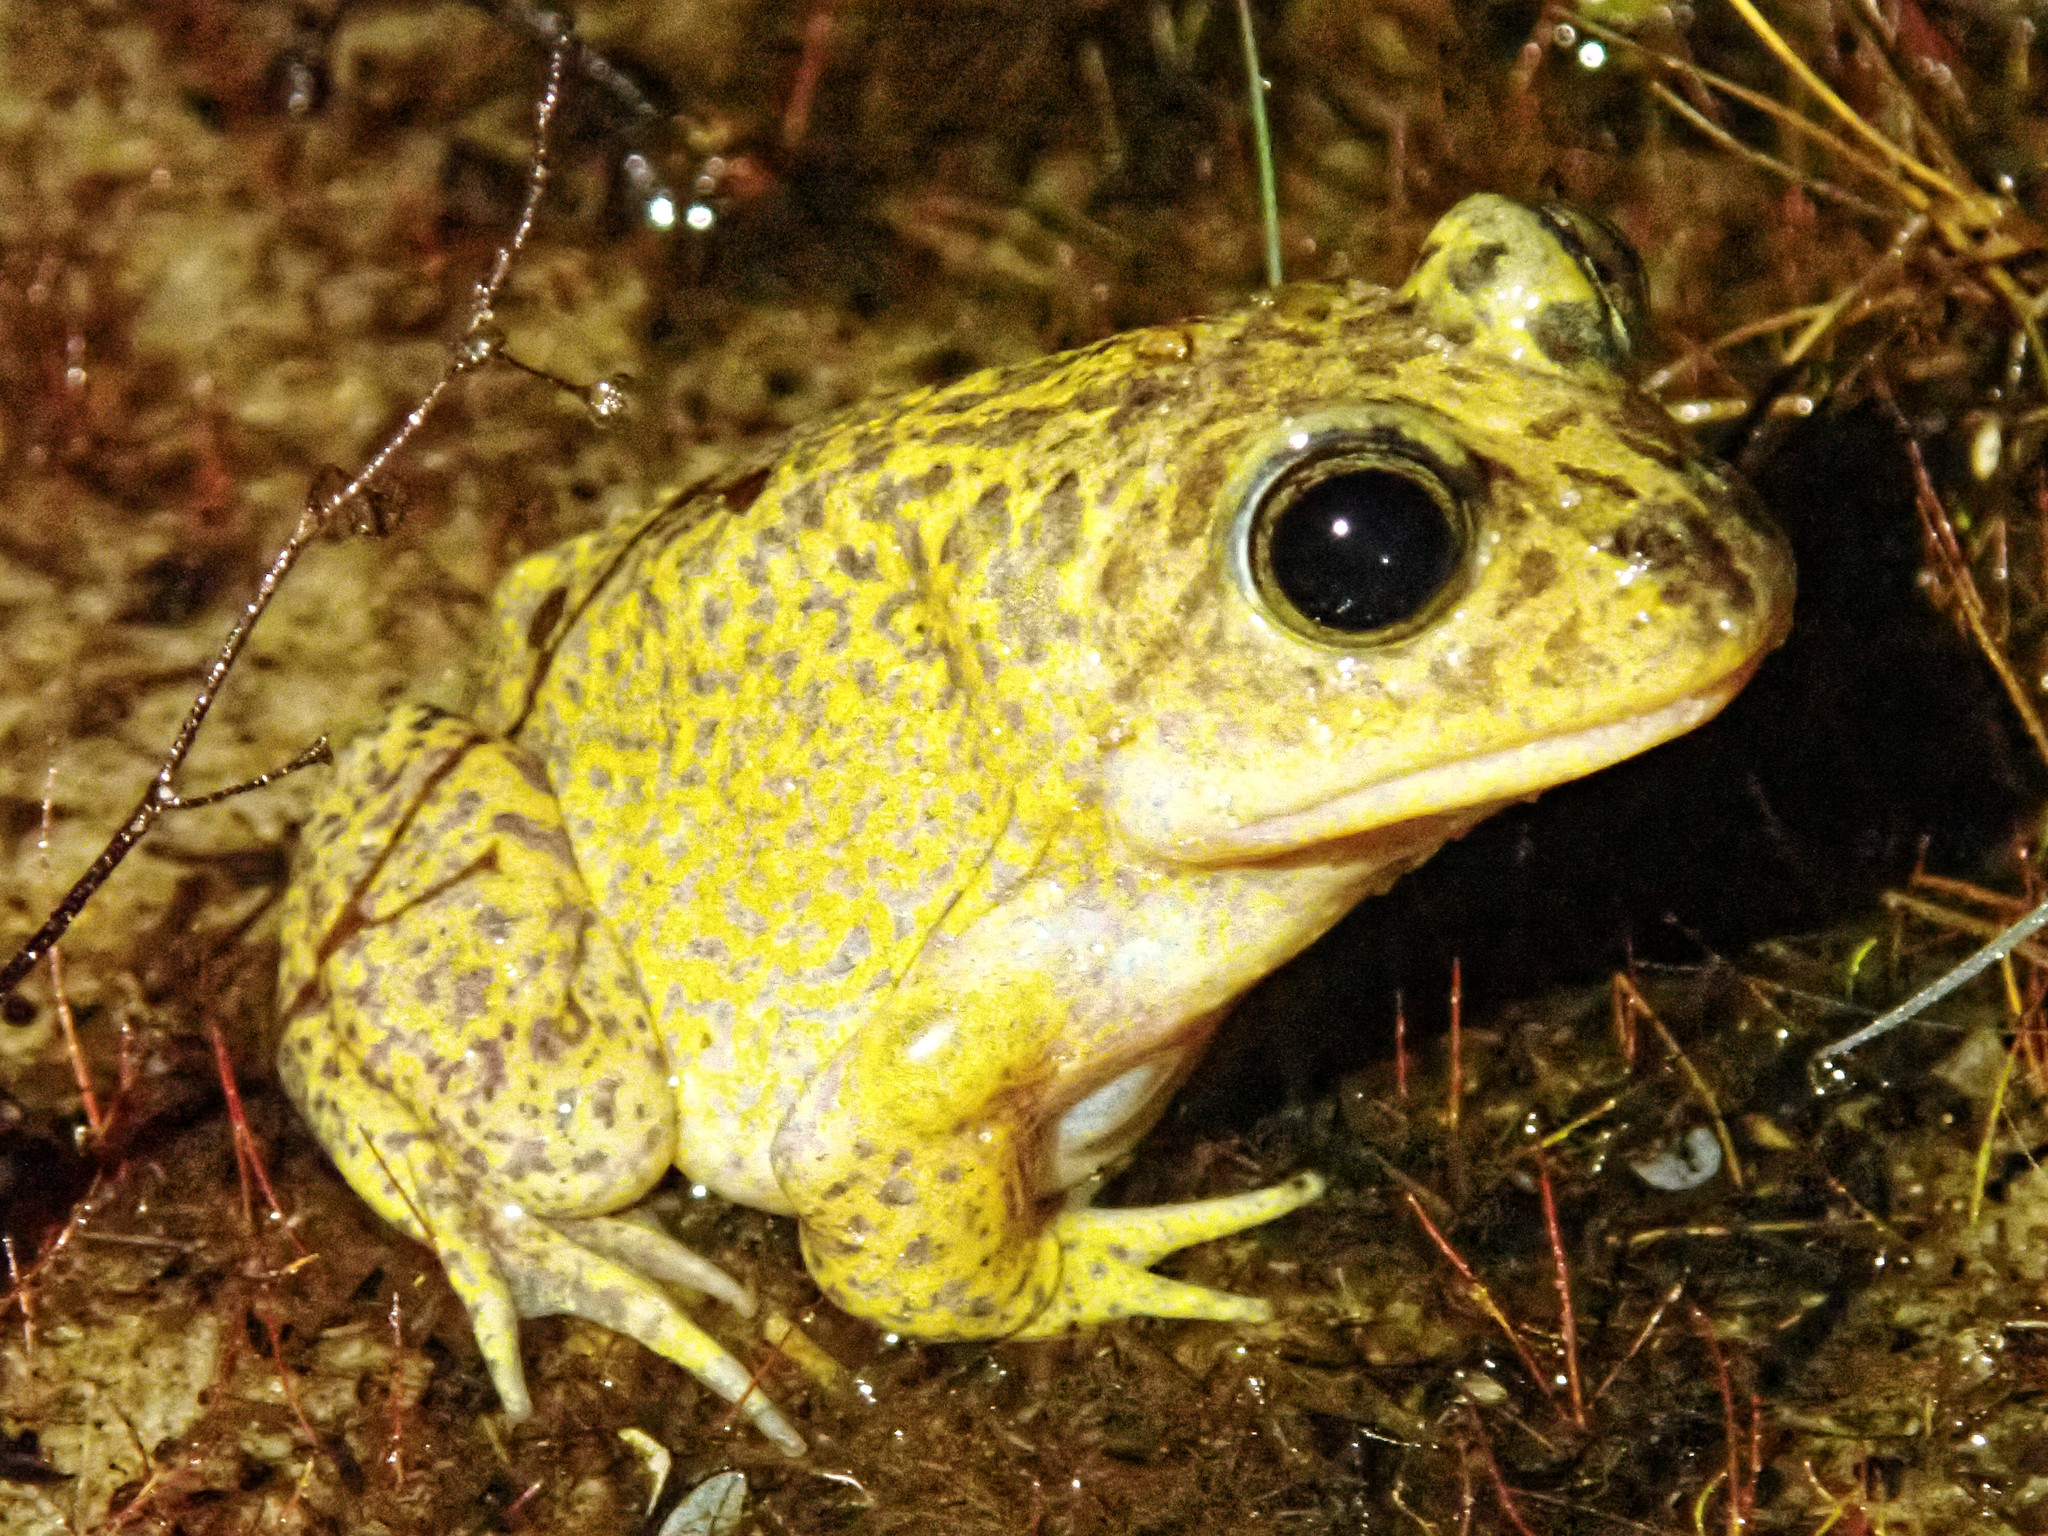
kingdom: Animalia
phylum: Chordata
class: Amphibia
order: Anura
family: Pelobatidae
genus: Pelobates
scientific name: Pelobates cultripes
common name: Western spadefoot
